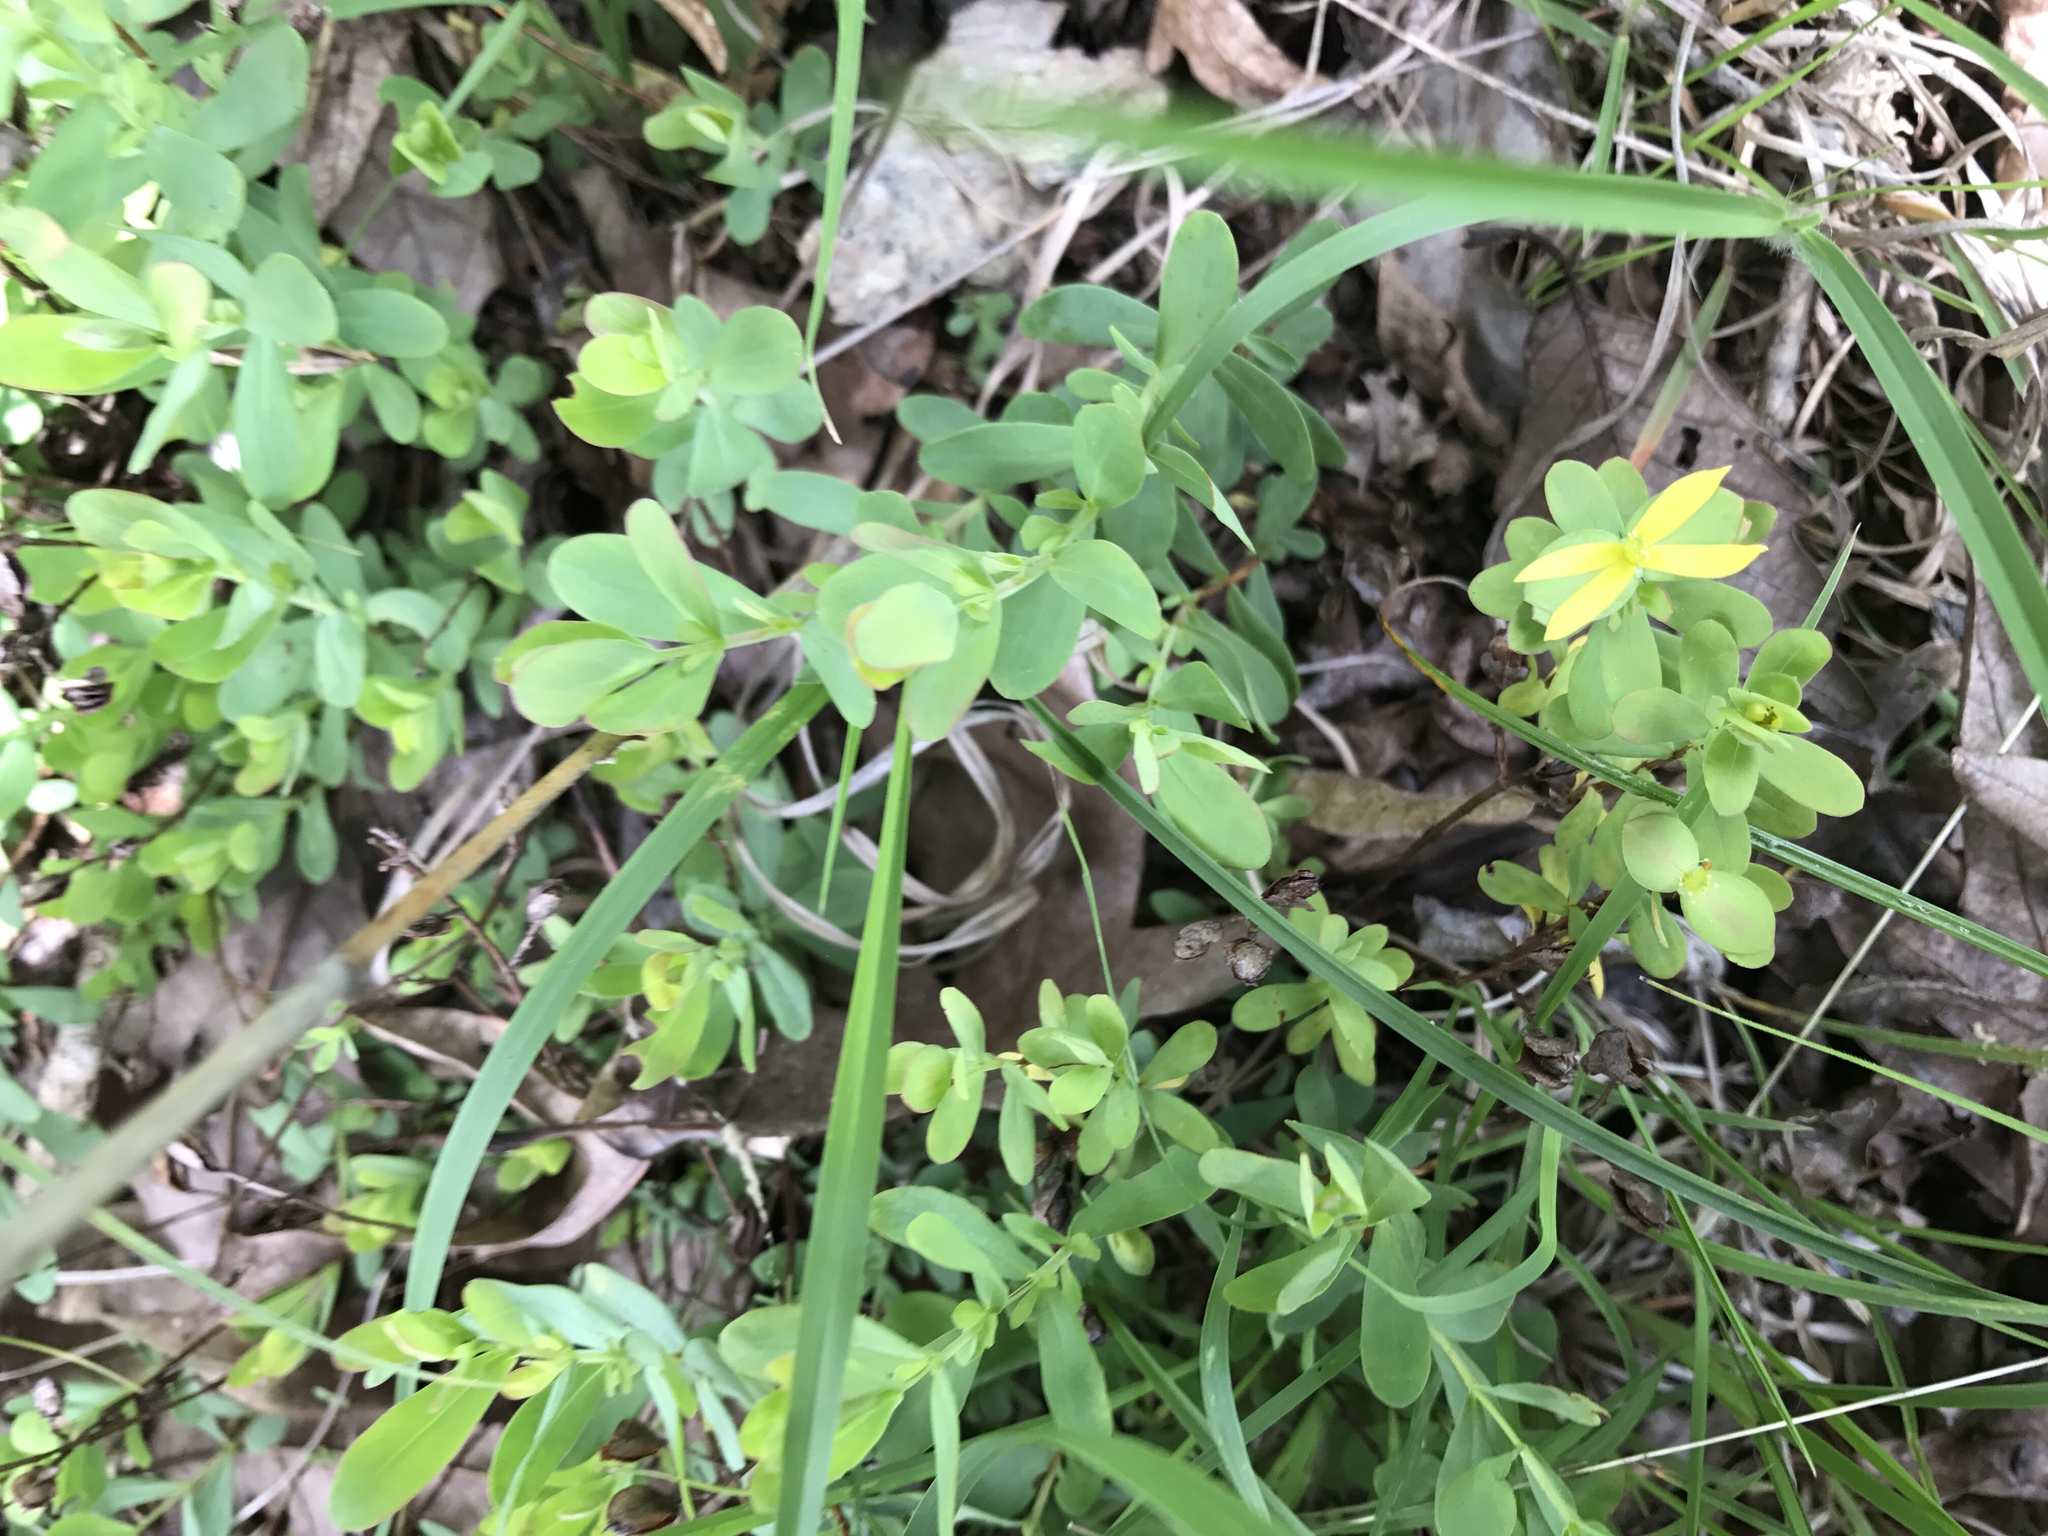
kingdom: Plantae
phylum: Tracheophyta
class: Magnoliopsida
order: Malpighiales
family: Hypericaceae
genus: Hypericum
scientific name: Hypericum hypericoides
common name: St. andrew's cross
